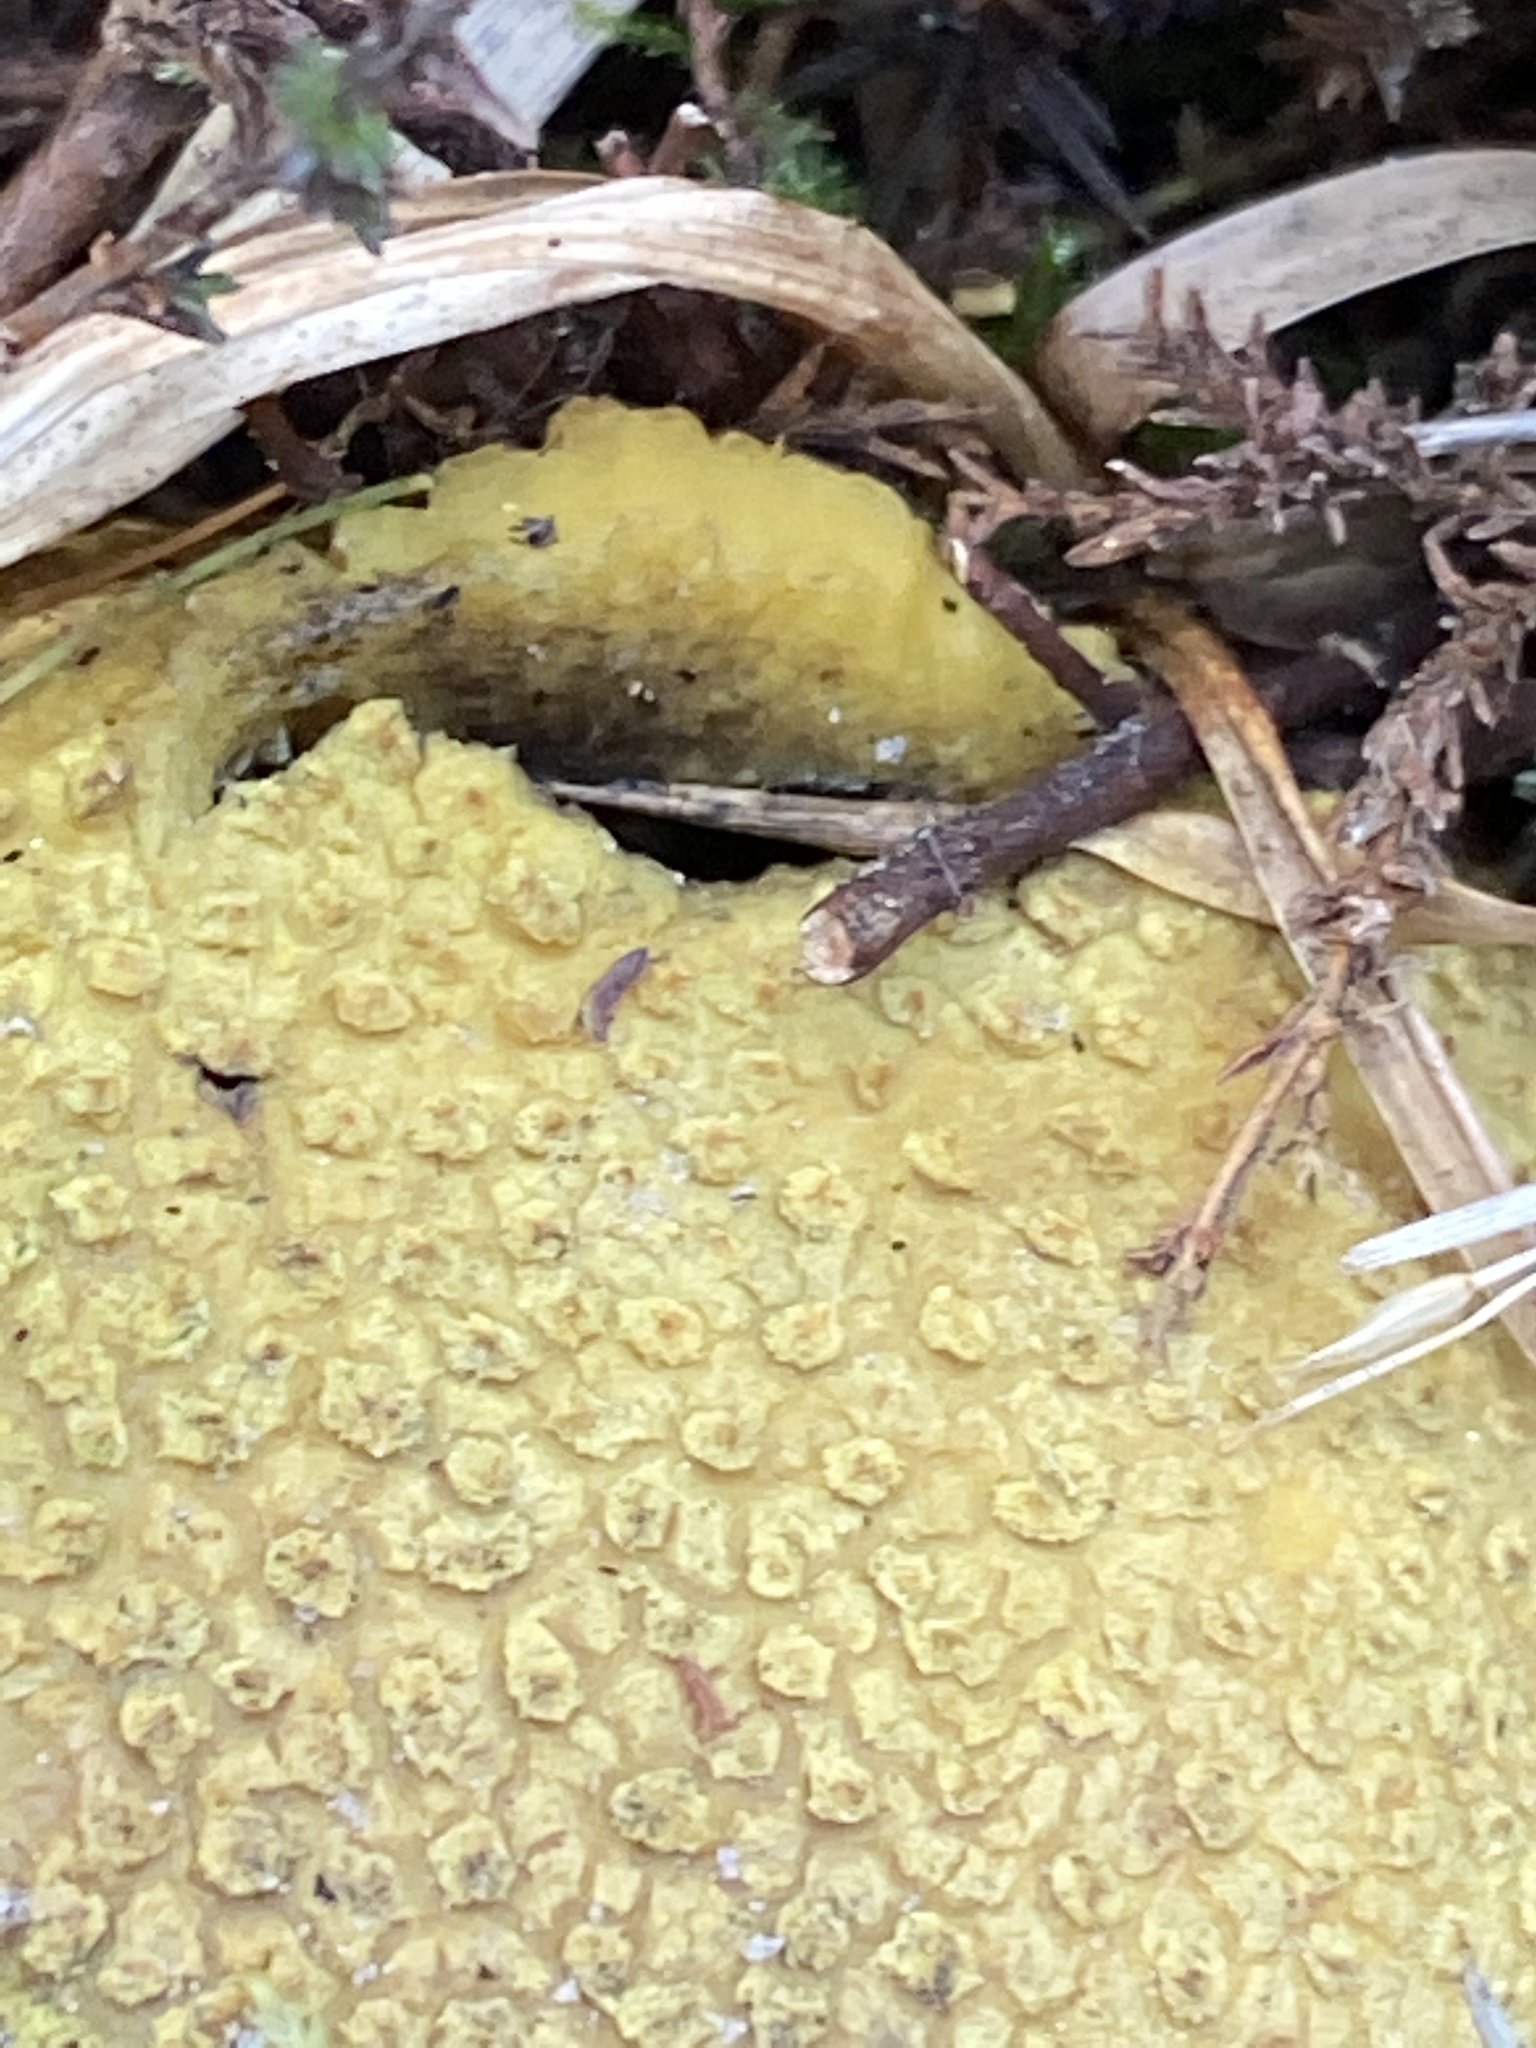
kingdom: Fungi
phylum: Basidiomycota
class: Agaricomycetes
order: Boletales
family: Sclerodermataceae
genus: Scleroderma
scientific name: Scleroderma citrinum
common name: Common earthball
